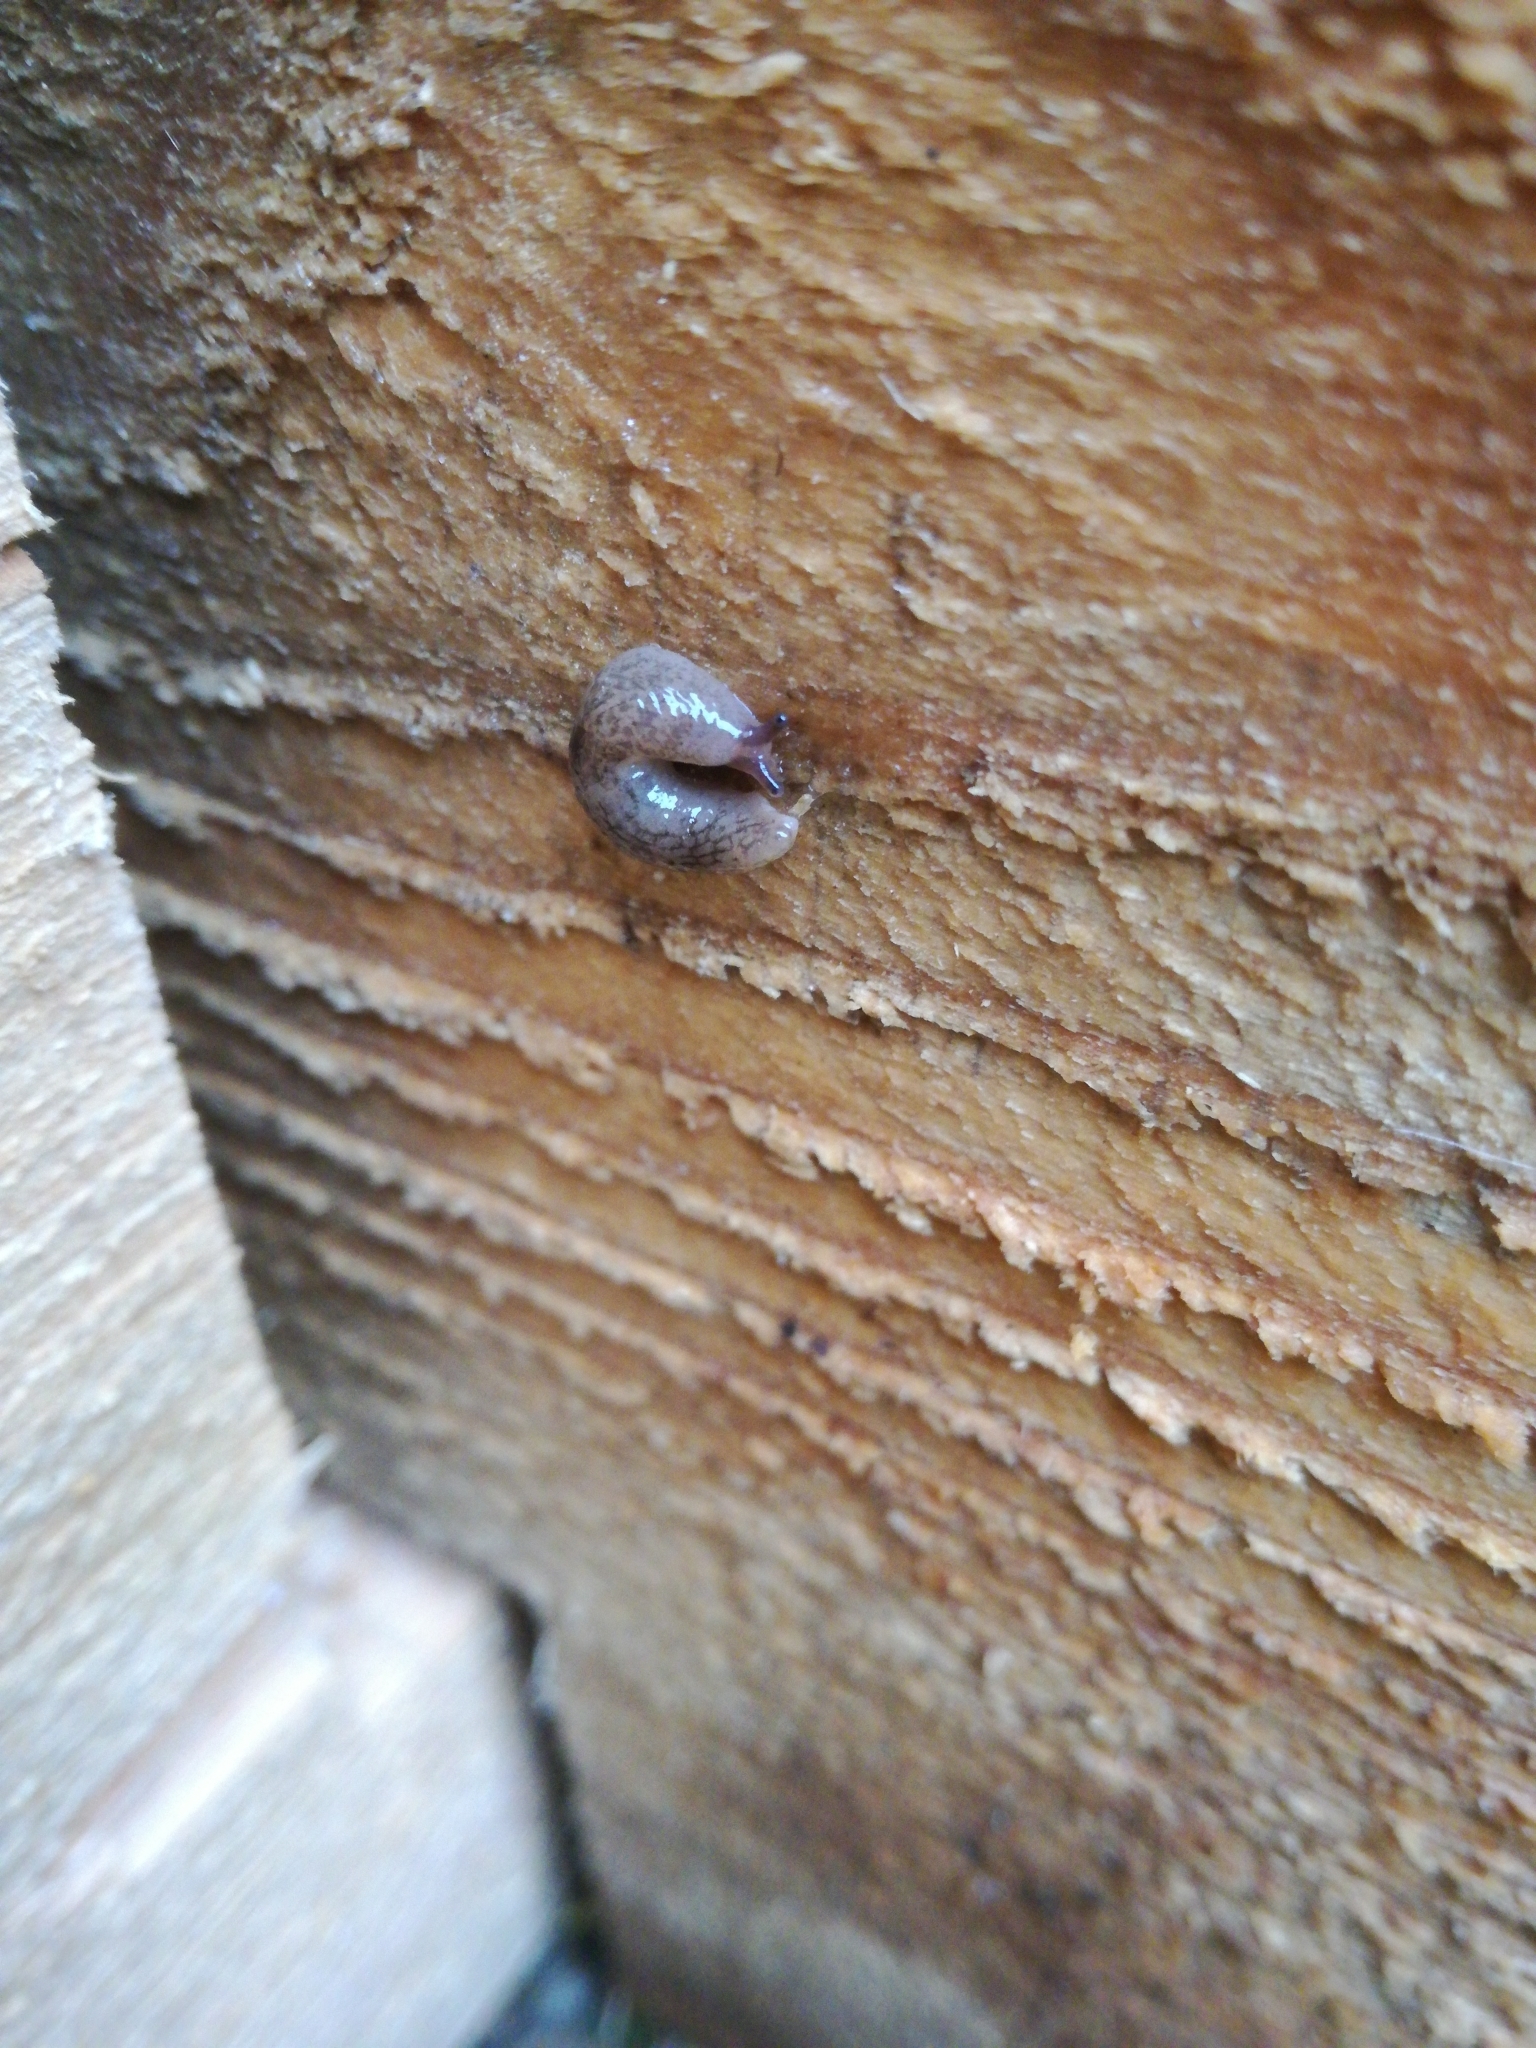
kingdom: Animalia
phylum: Mollusca
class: Gastropoda
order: Stylommatophora
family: Agriolimacidae
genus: Deroceras
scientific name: Deroceras reticulatum
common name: Gray field slug
